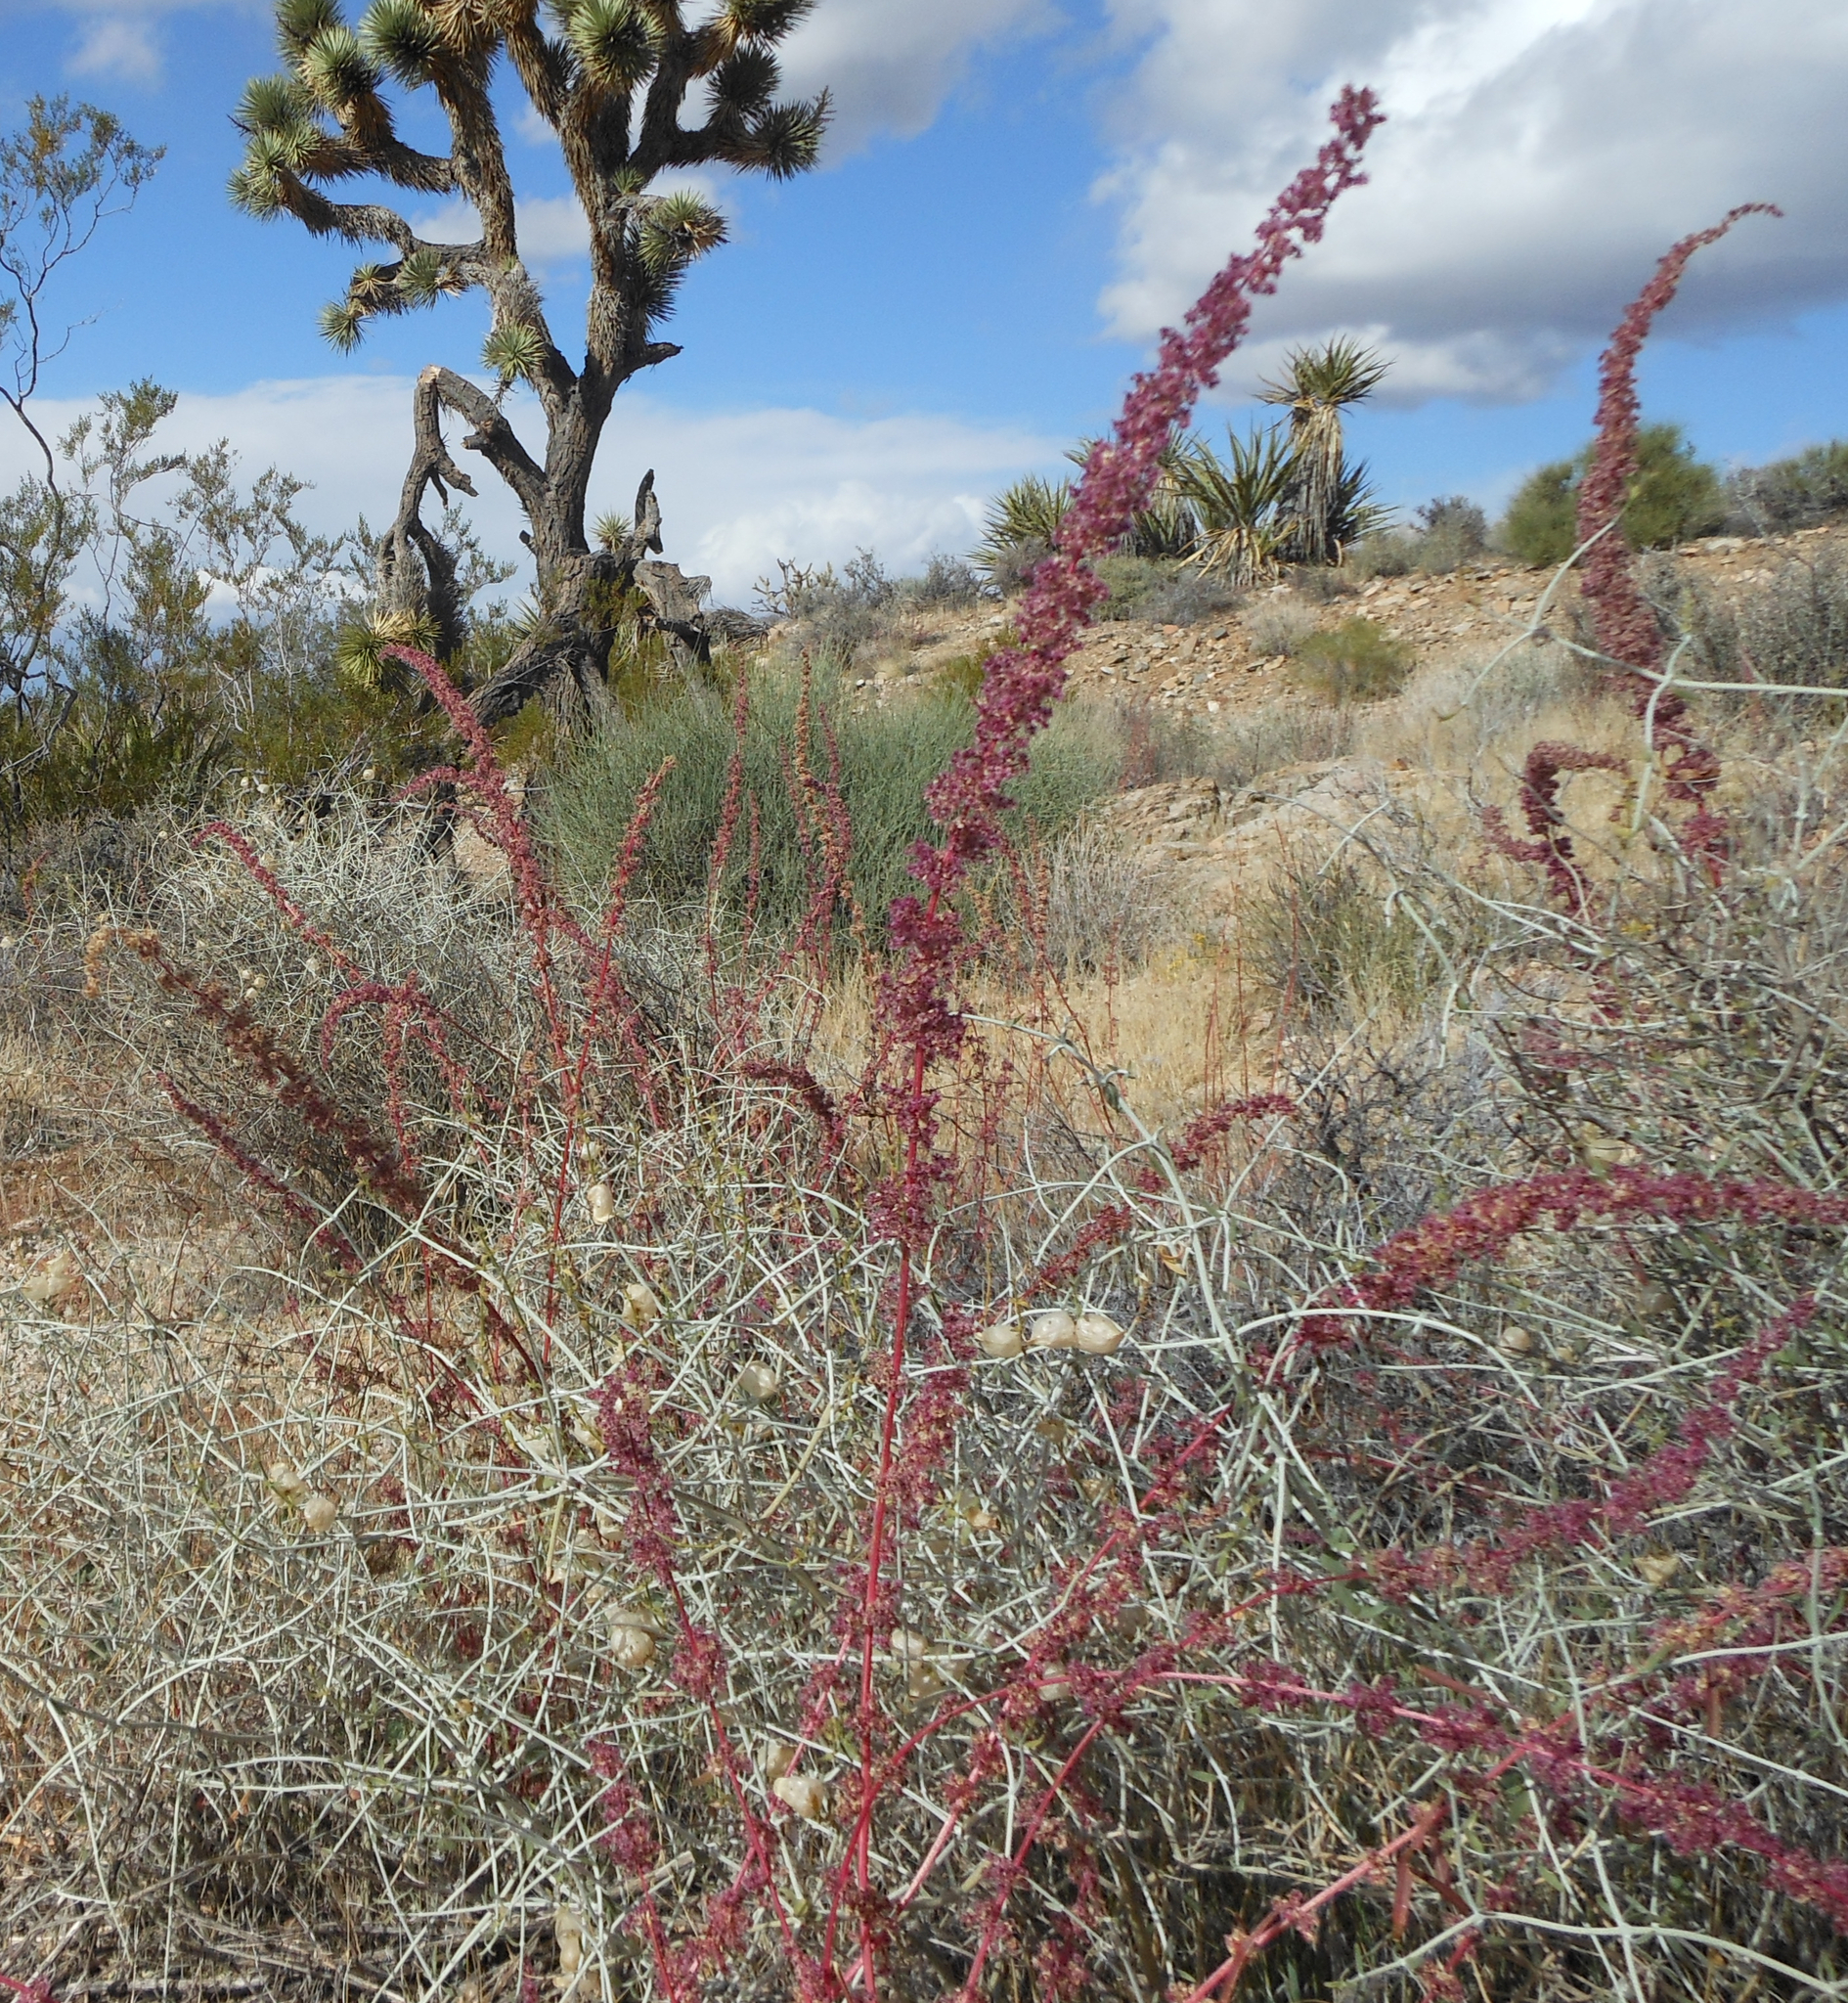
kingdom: Plantae
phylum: Tracheophyta
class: Magnoliopsida
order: Caryophyllales
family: Amaranthaceae
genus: Amaranthus
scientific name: Amaranthus fimbriatus
